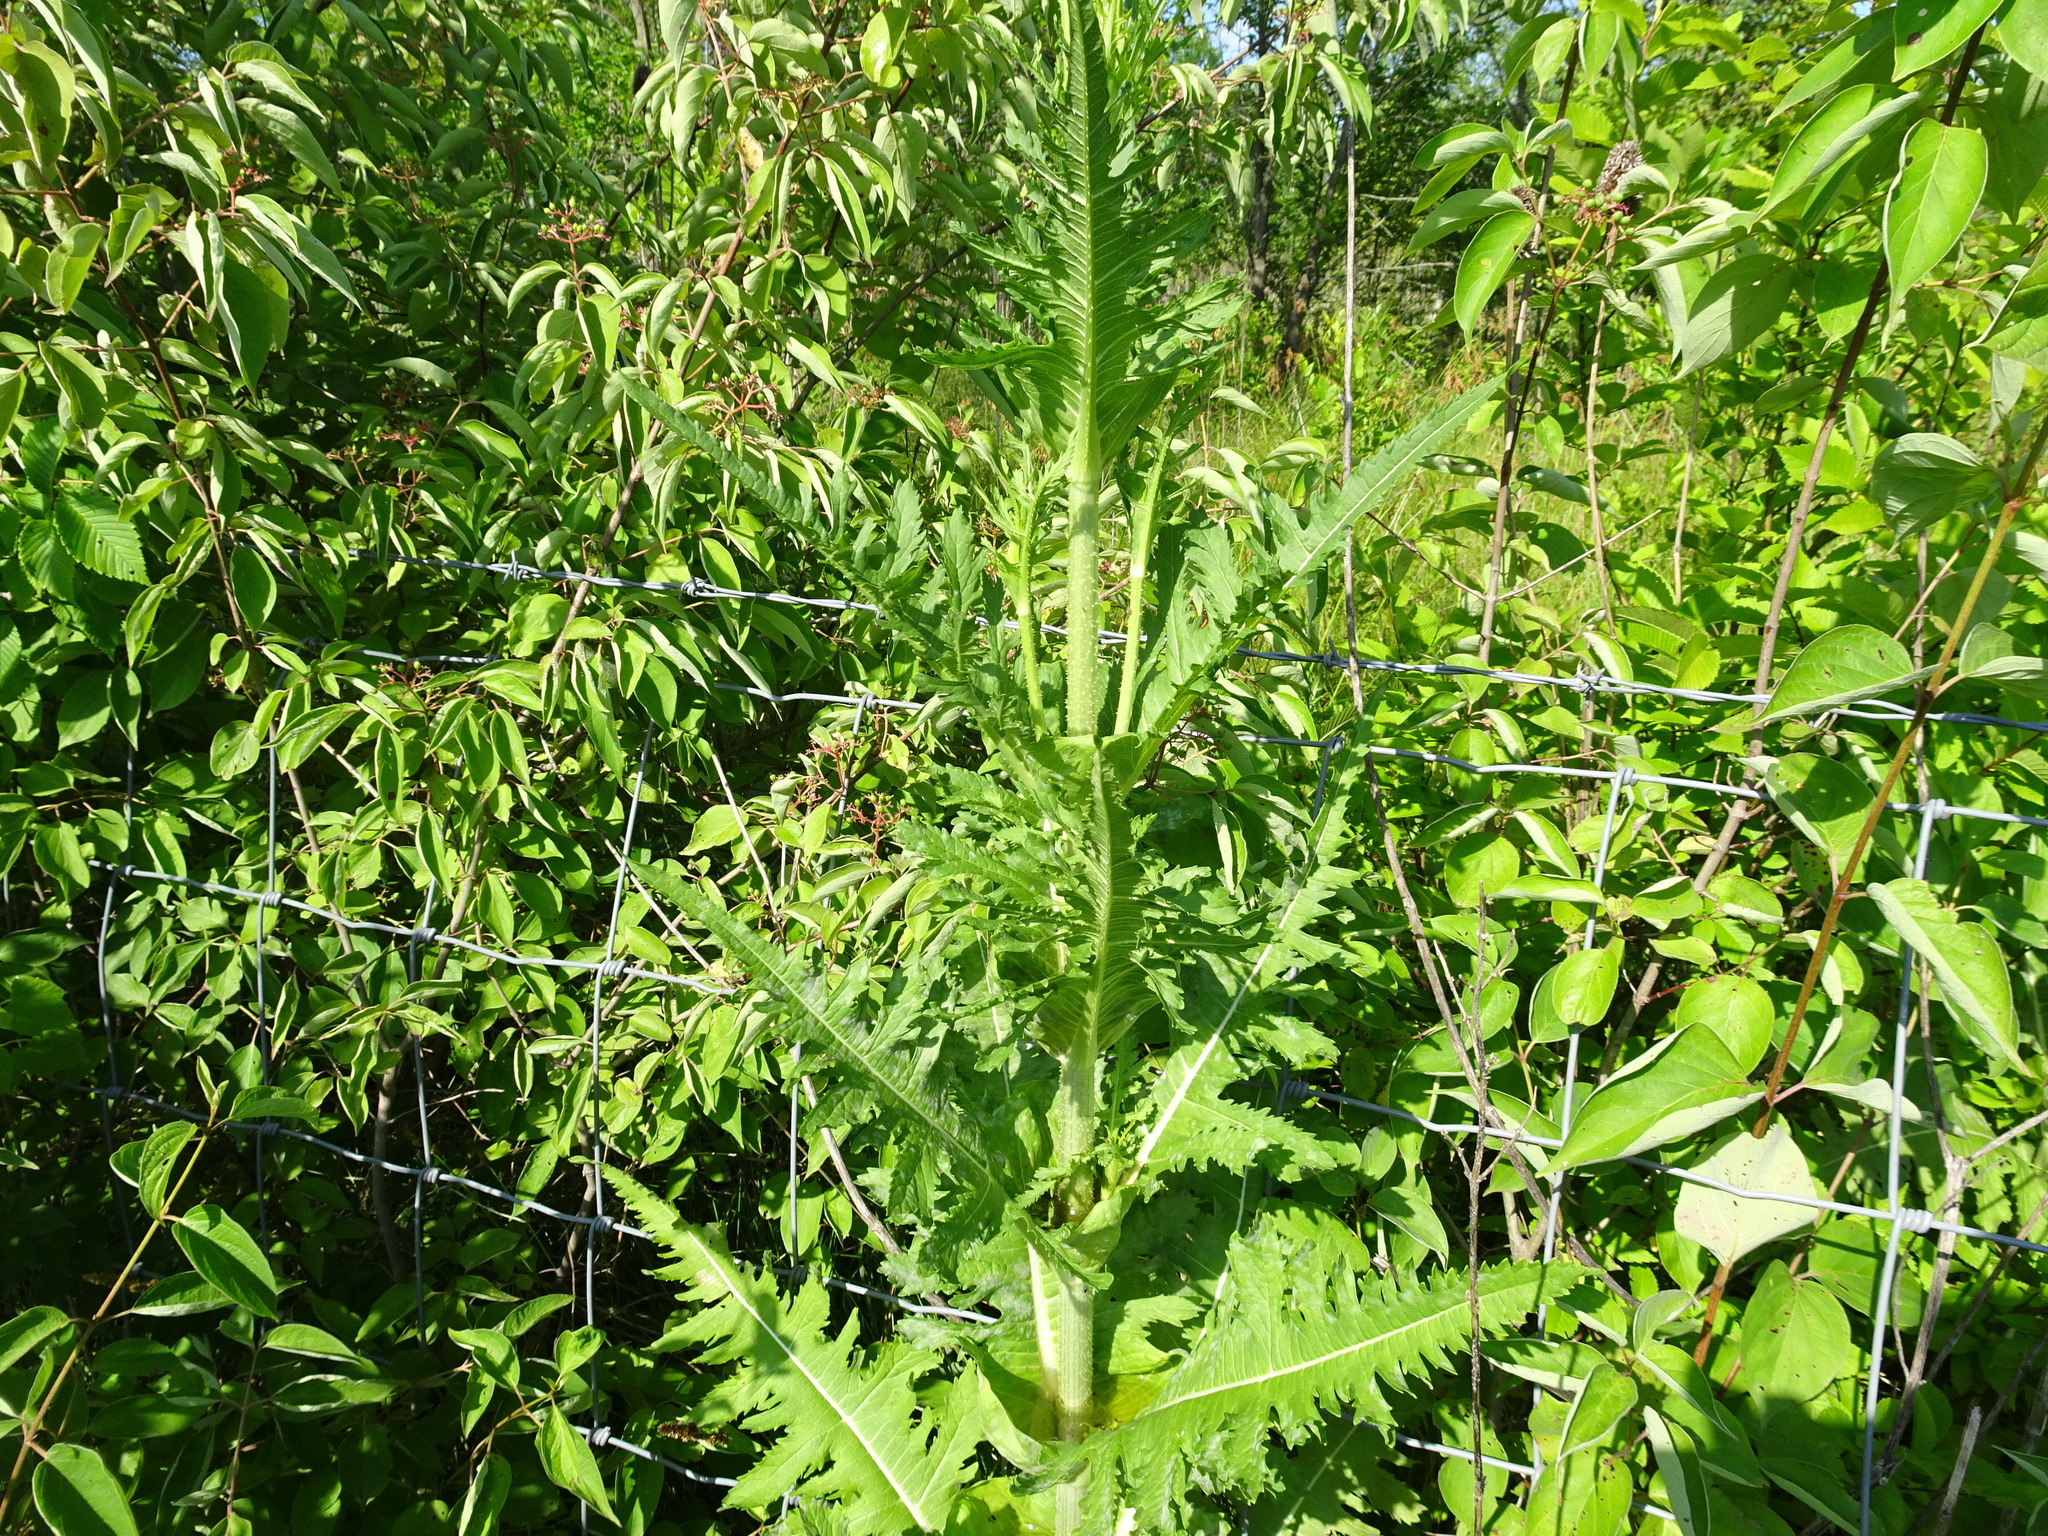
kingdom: Plantae
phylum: Tracheophyta
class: Magnoliopsida
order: Dipsacales
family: Caprifoliaceae
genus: Dipsacus
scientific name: Dipsacus laciniatus
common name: Cut-leaved teasel
